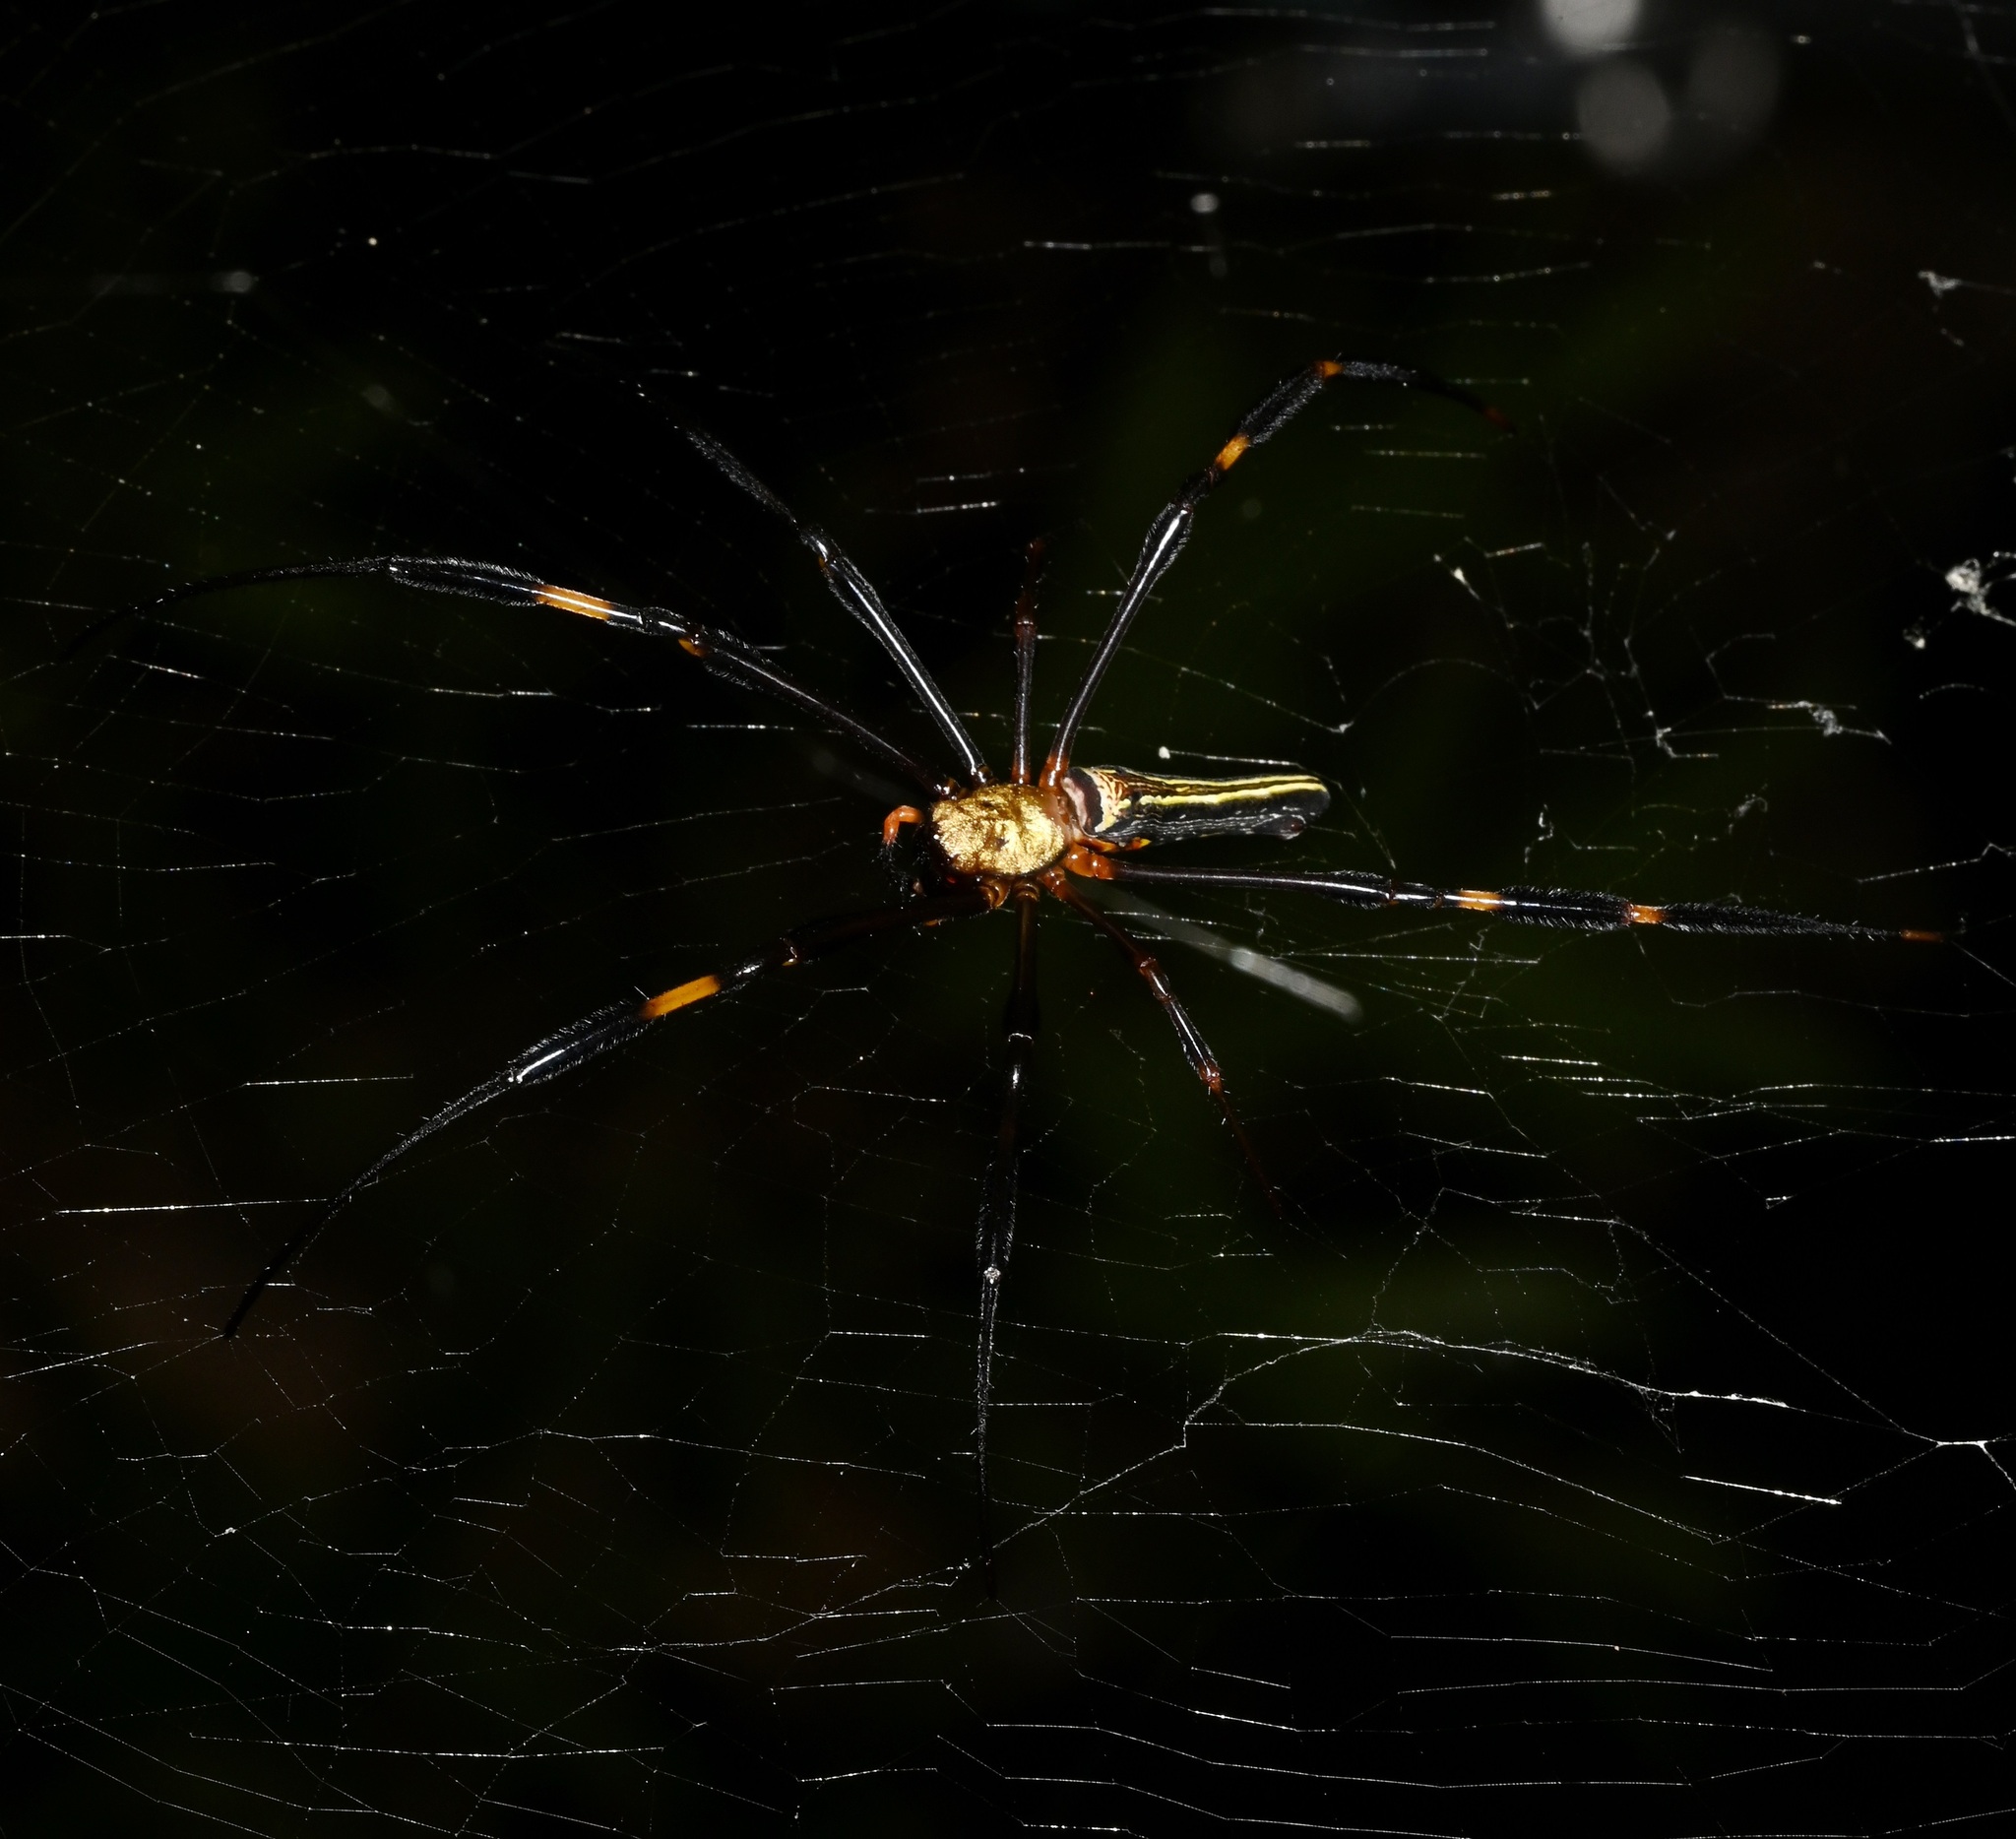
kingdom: Animalia
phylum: Arthropoda
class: Arachnida
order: Araneae
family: Araneidae
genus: Nephila
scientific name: Nephila pilipes
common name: Giant golden orb weaver
